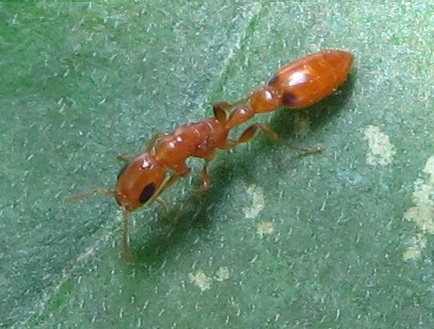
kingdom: Animalia
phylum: Arthropoda
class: Insecta
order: Hymenoptera
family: Formicidae
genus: Pseudomyrmex
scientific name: Pseudomyrmex pallidus
